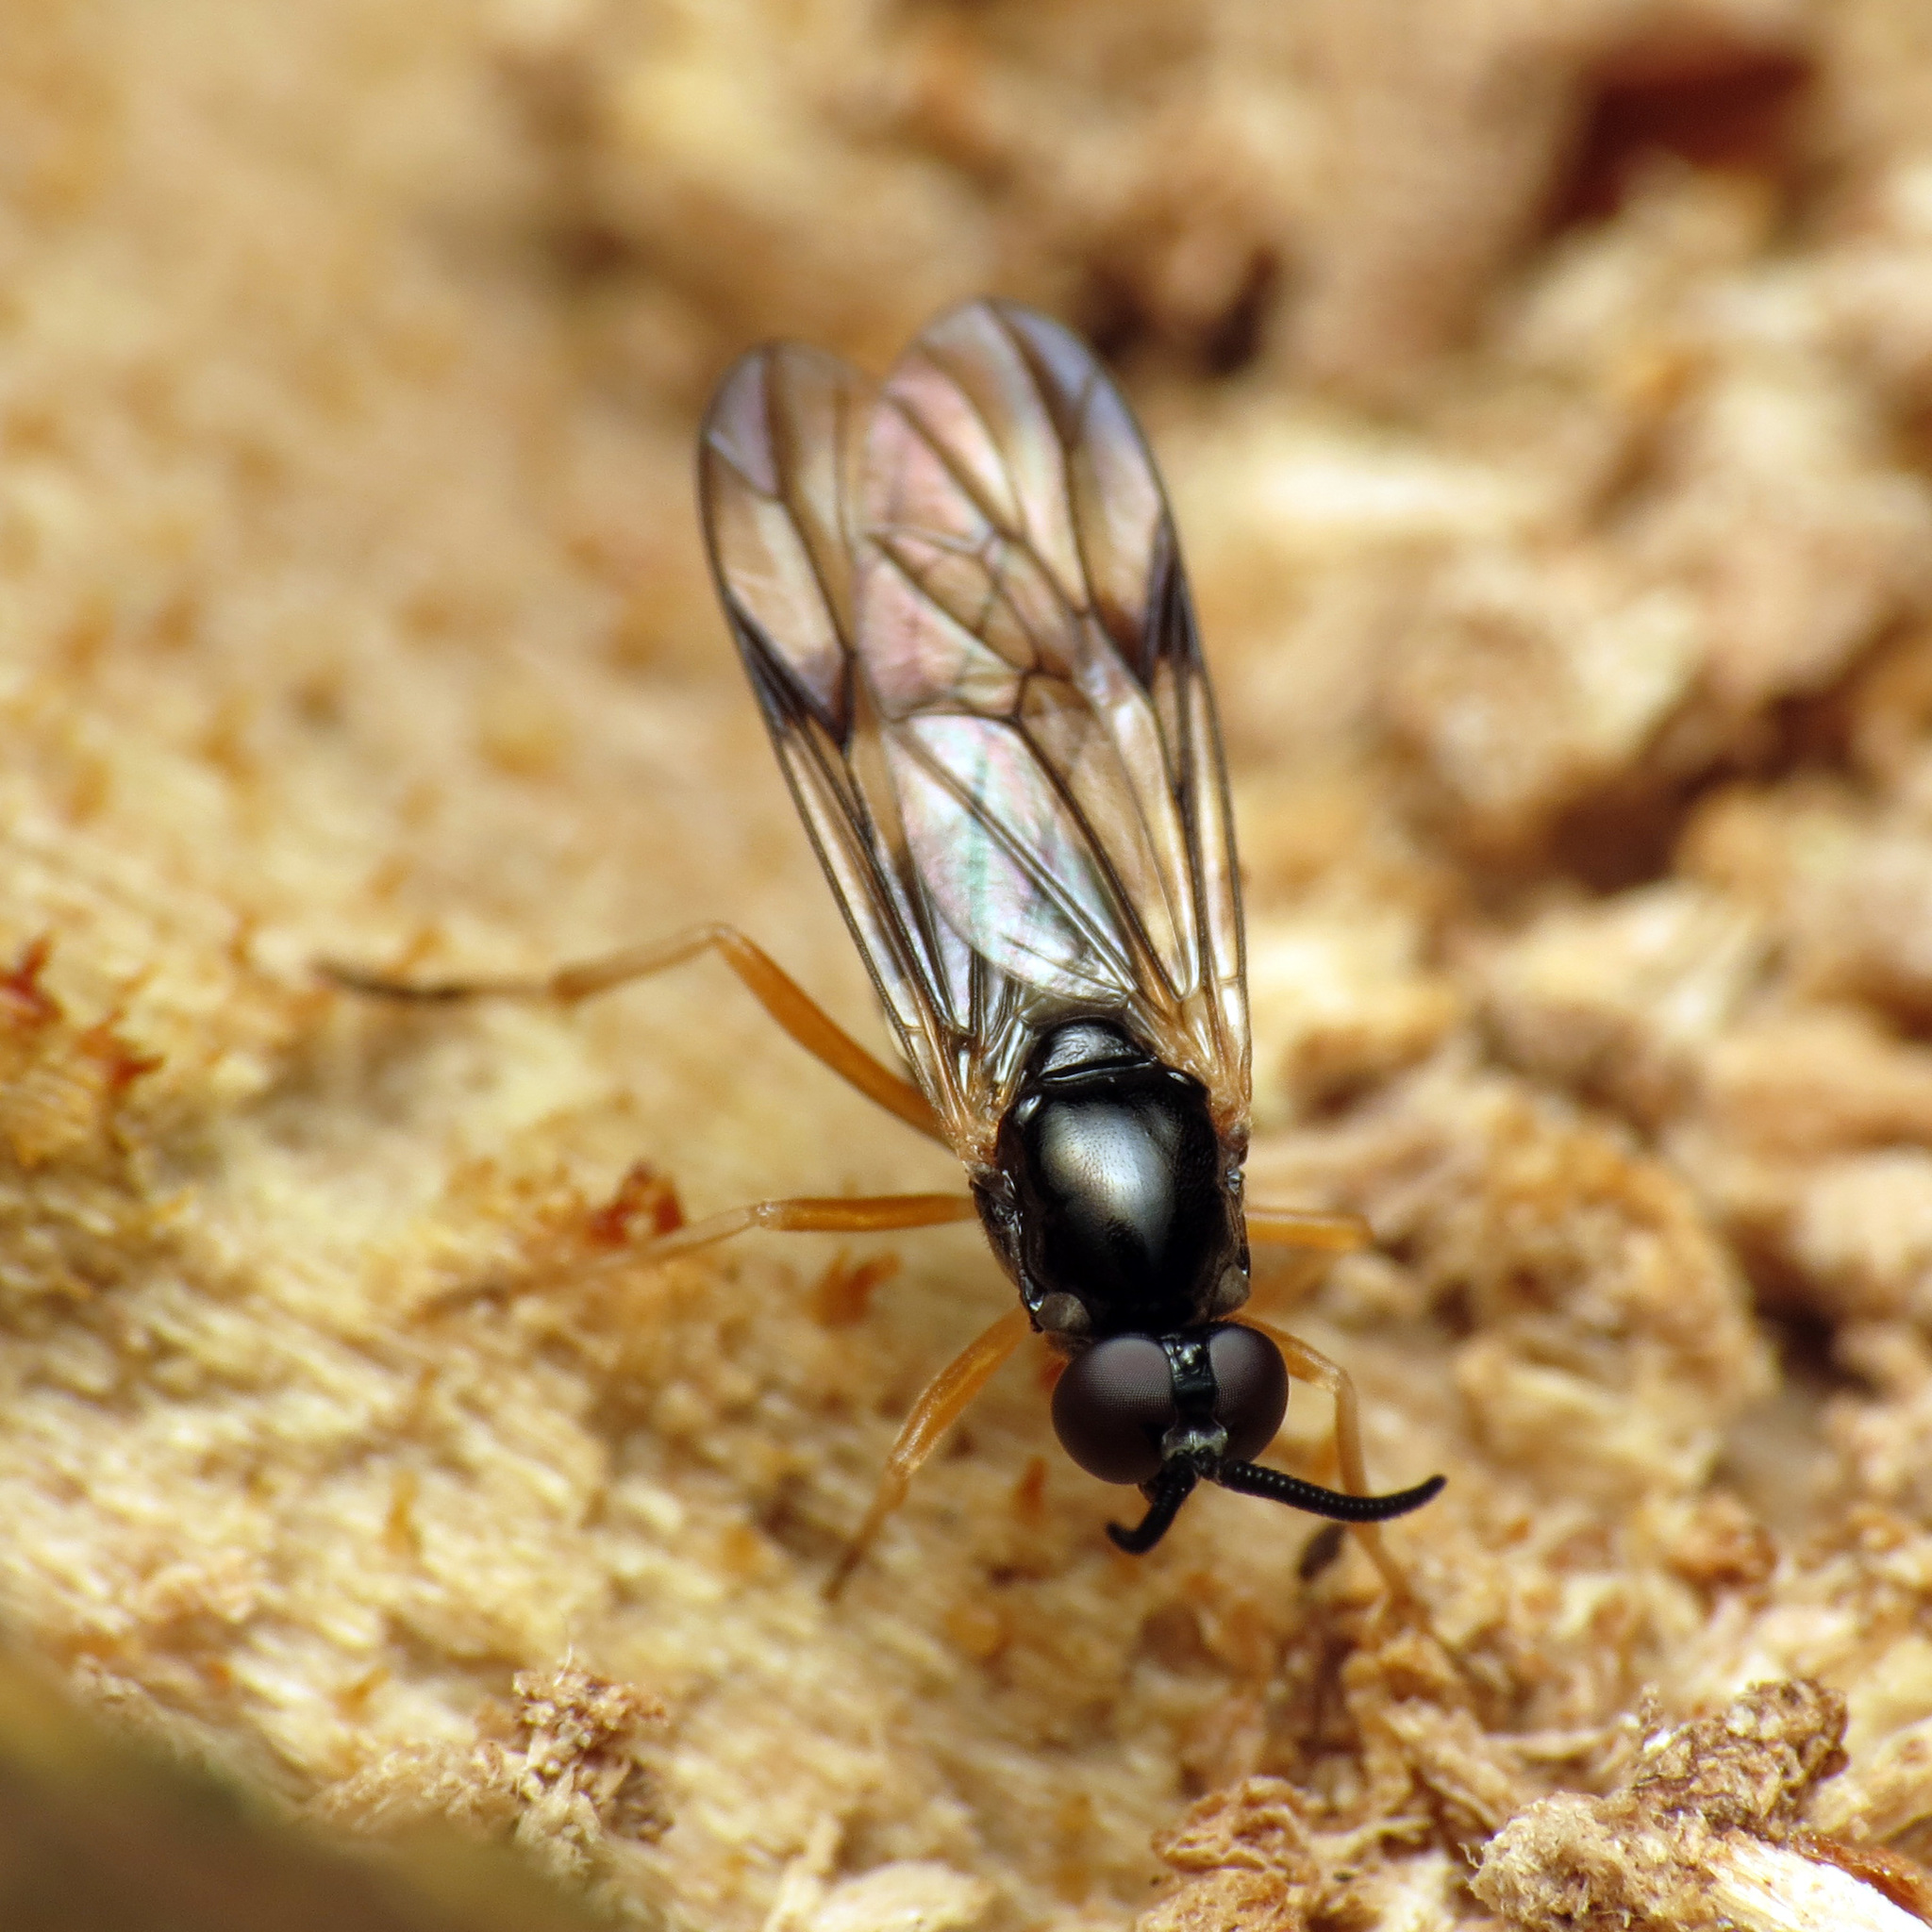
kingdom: Animalia
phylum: Arthropoda
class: Insecta
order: Diptera
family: Xylophagidae
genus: Rachicerus
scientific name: Rachicerus nitidus
